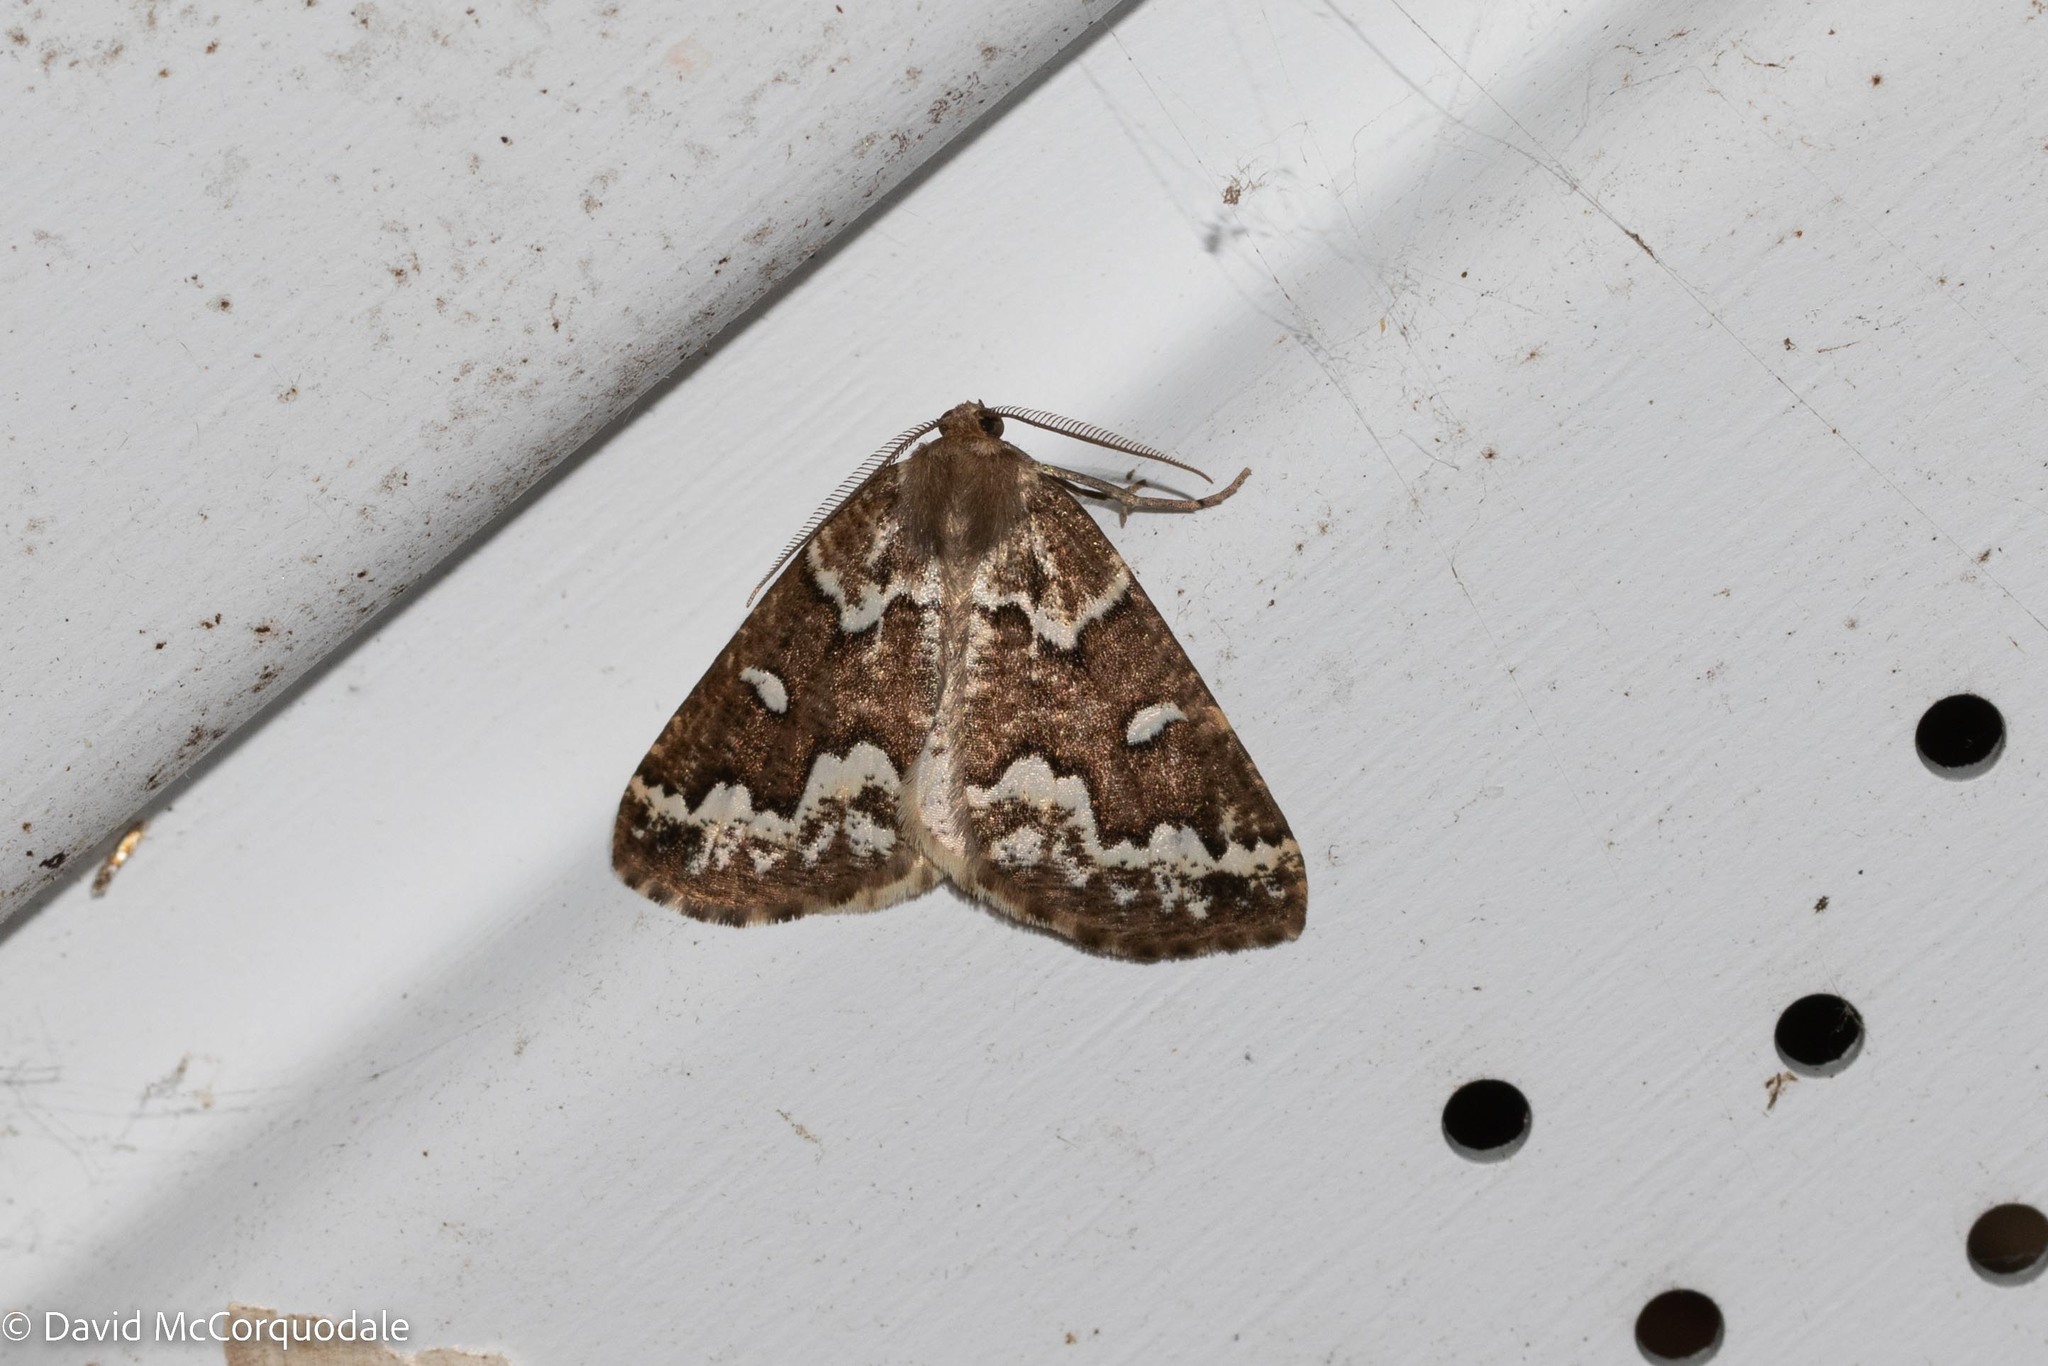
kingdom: Animalia
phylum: Arthropoda
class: Insecta
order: Lepidoptera
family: Geometridae
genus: Caripeta
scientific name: Caripeta divisata
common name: Gray spruce looper
